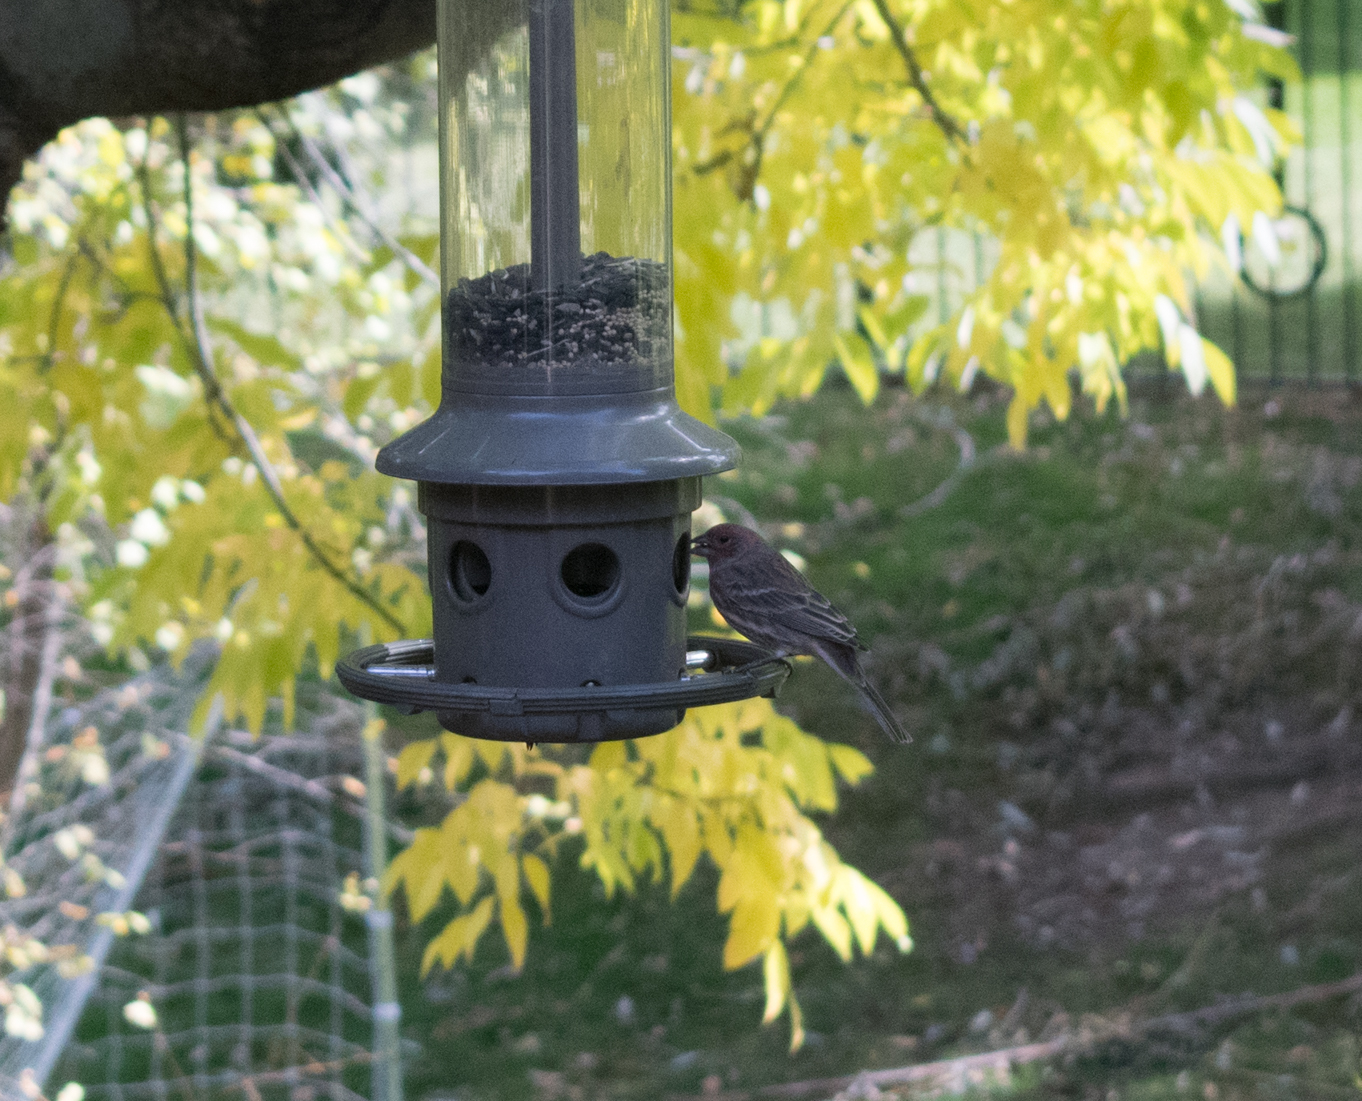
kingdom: Animalia
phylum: Chordata
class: Aves
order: Passeriformes
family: Fringillidae
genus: Haemorhous
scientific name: Haemorhous mexicanus
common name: House finch
